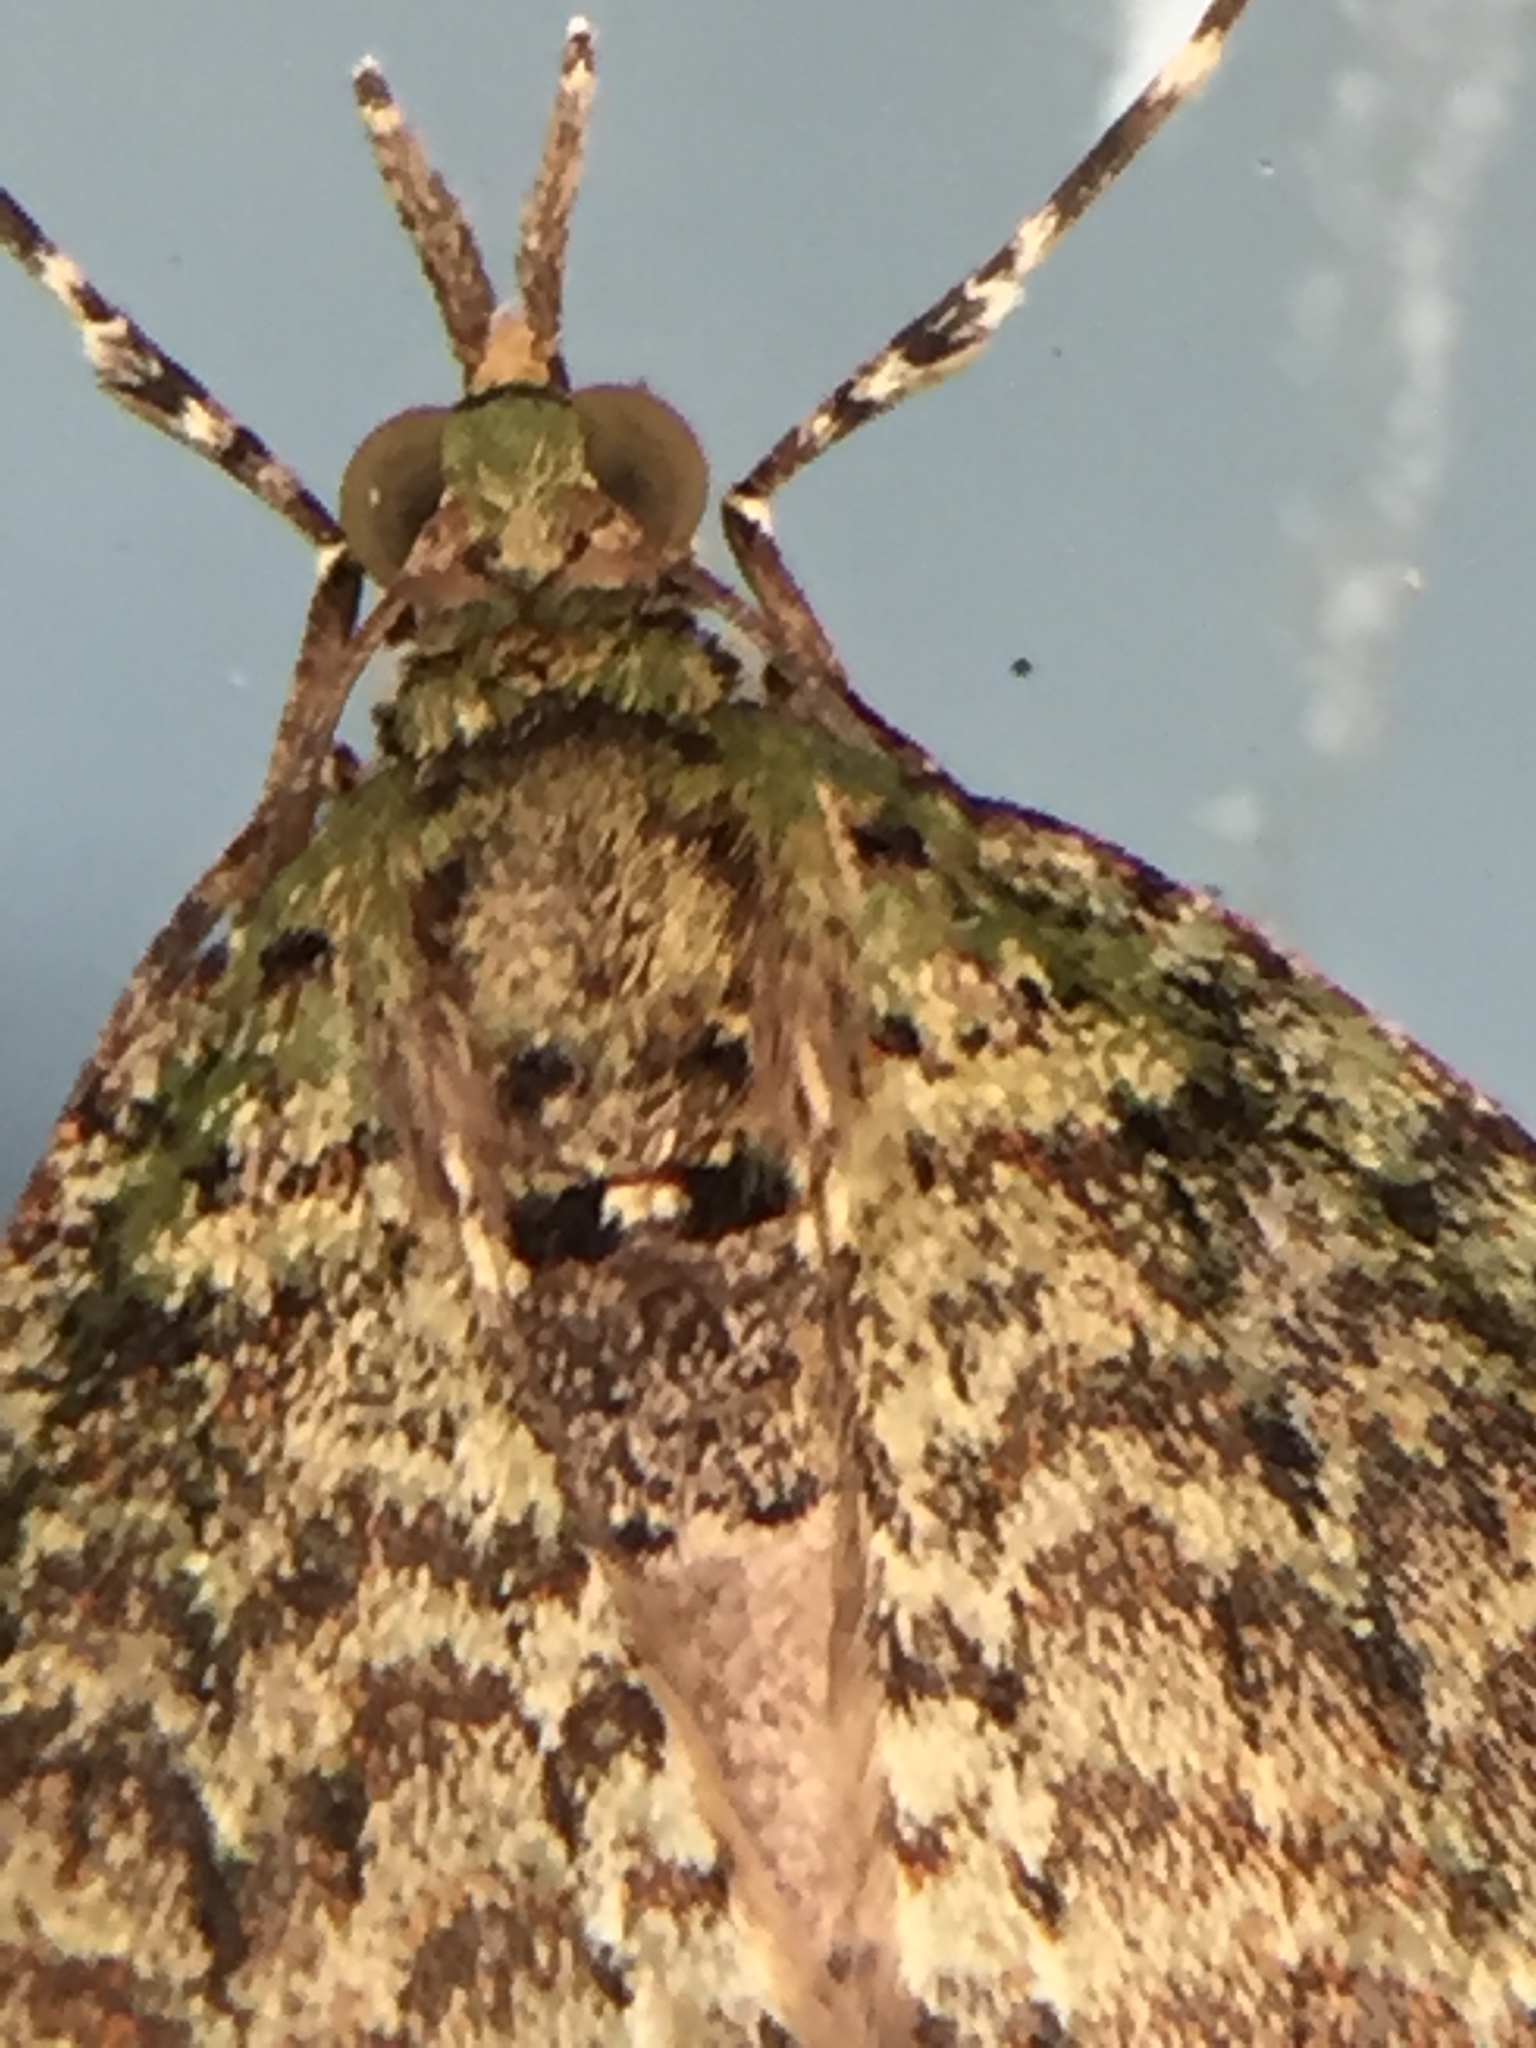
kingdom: Animalia
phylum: Arthropoda
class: Insecta
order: Lepidoptera
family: Geometridae
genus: Tatosoma
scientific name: Tatosoma transitaria
